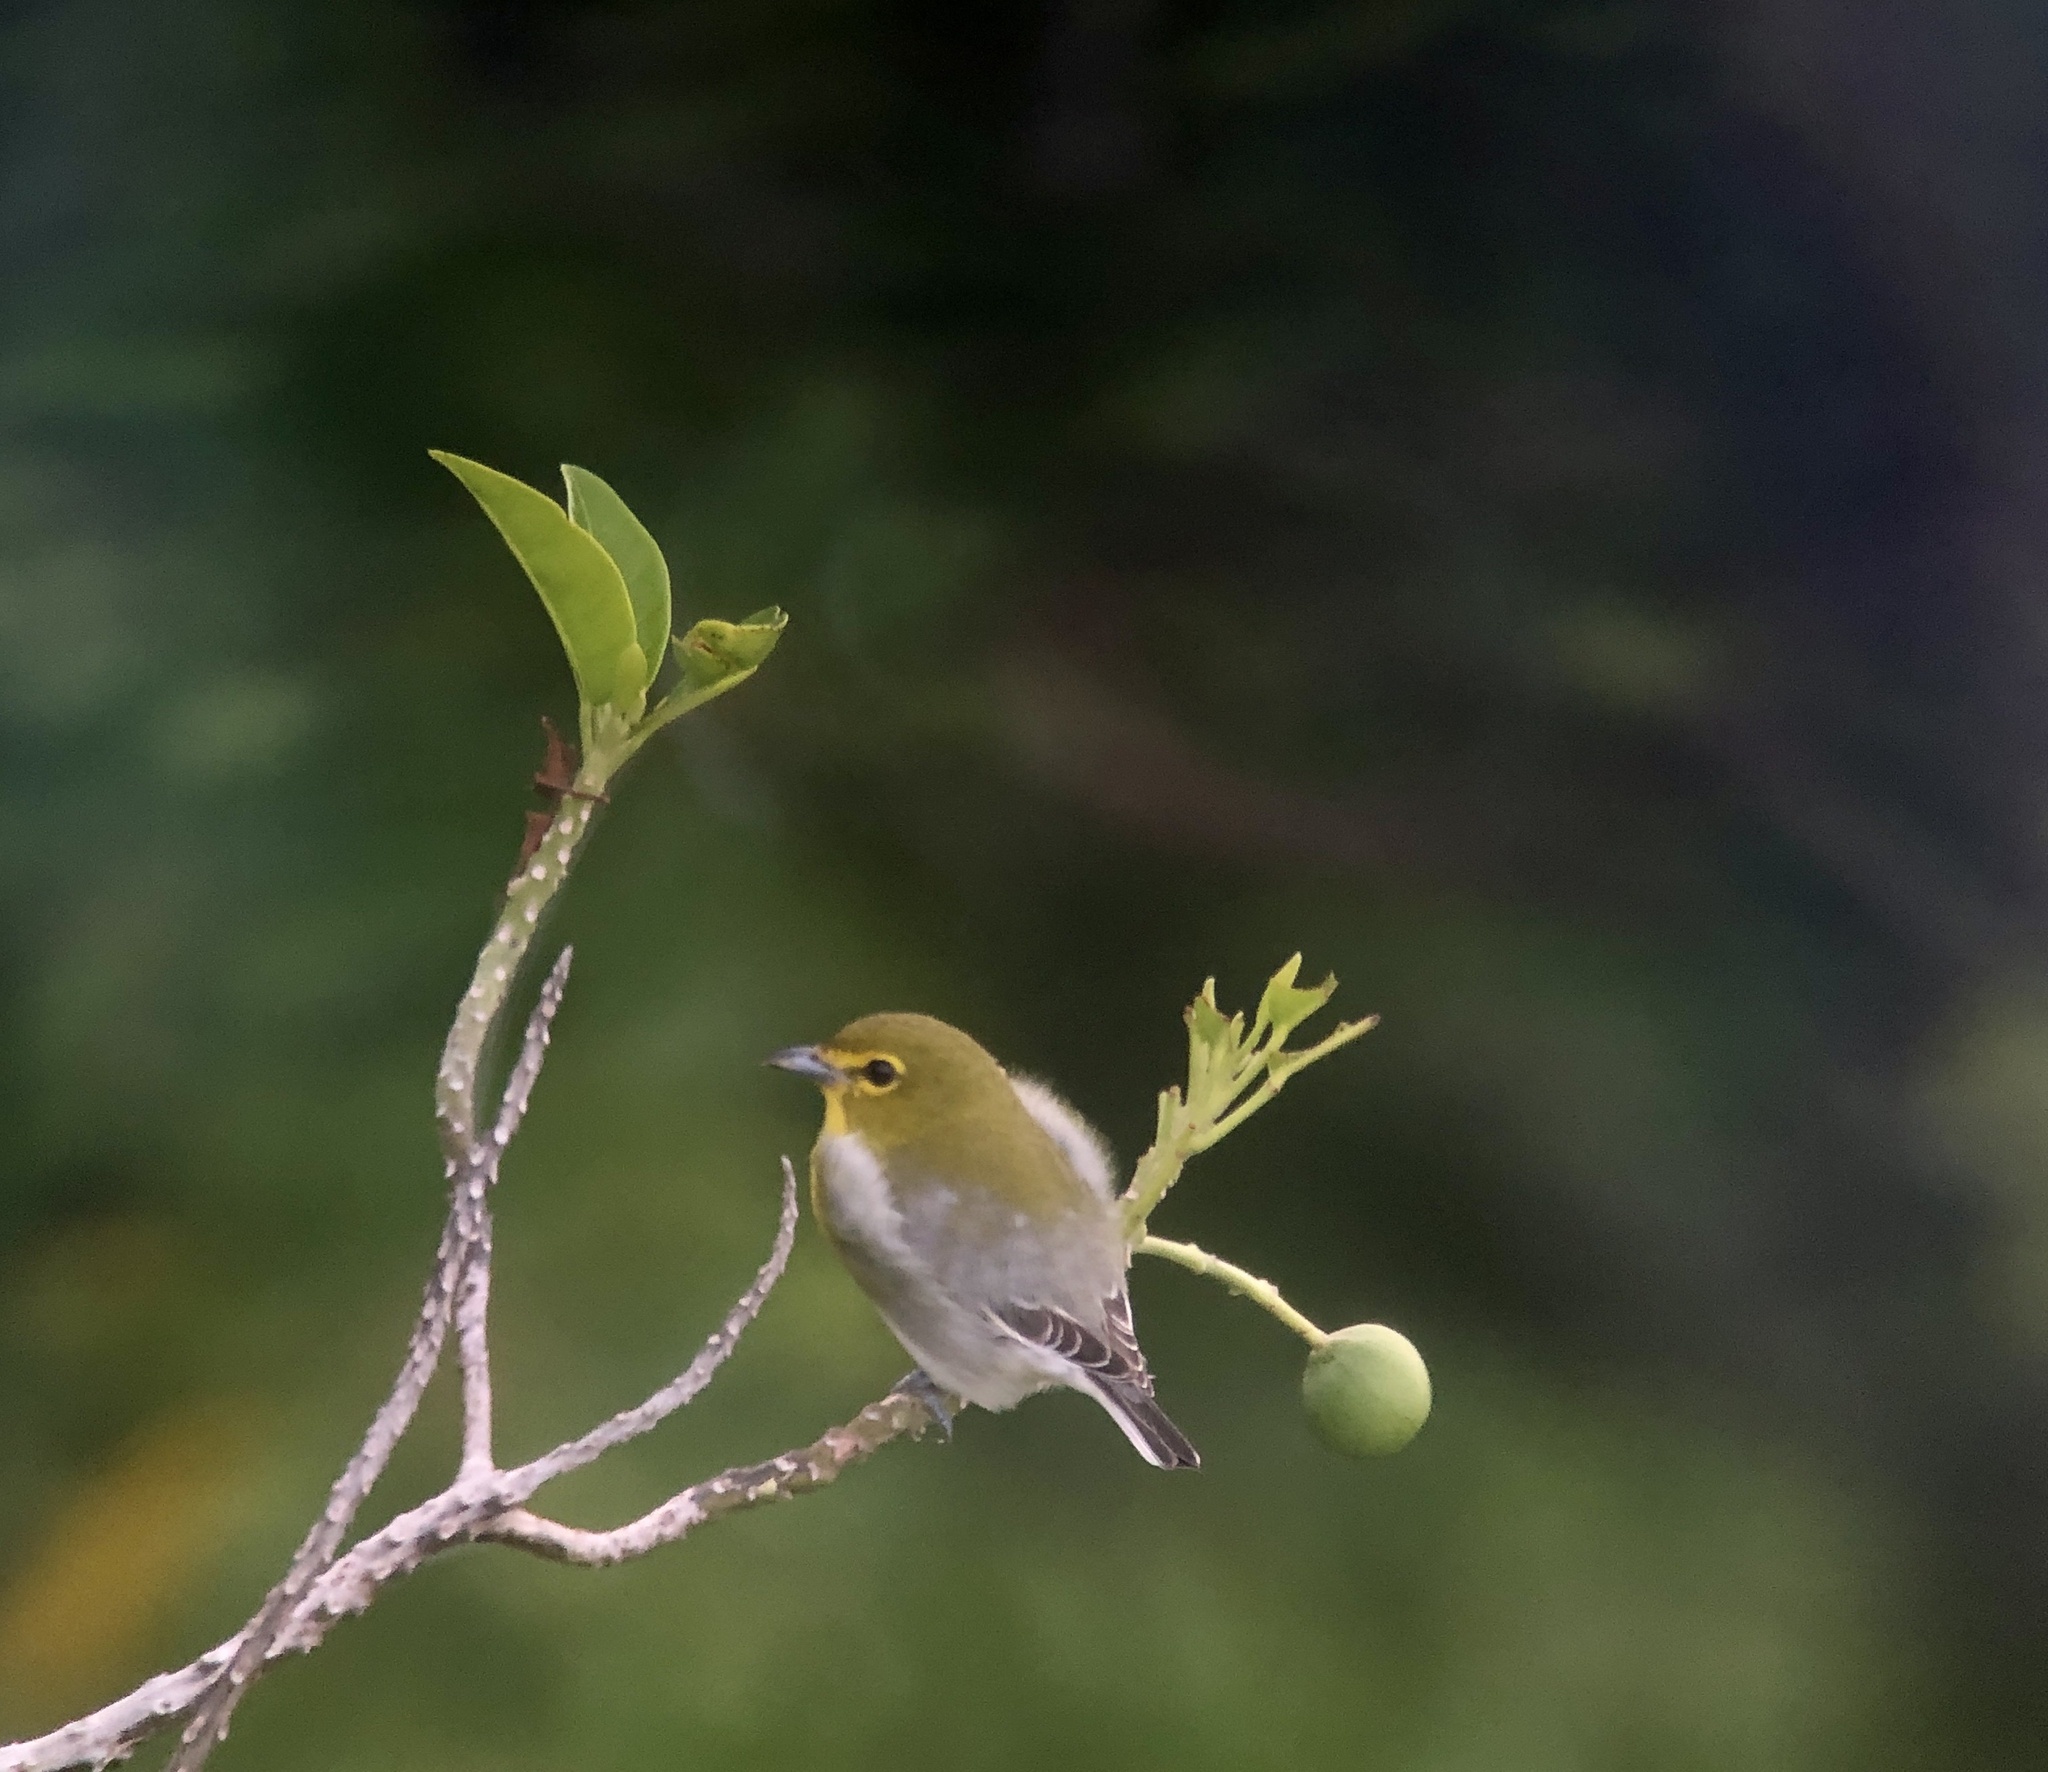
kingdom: Animalia
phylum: Chordata
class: Aves
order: Passeriformes
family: Vireonidae
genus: Vireo
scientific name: Vireo flavifrons
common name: Yellow-throated vireo
